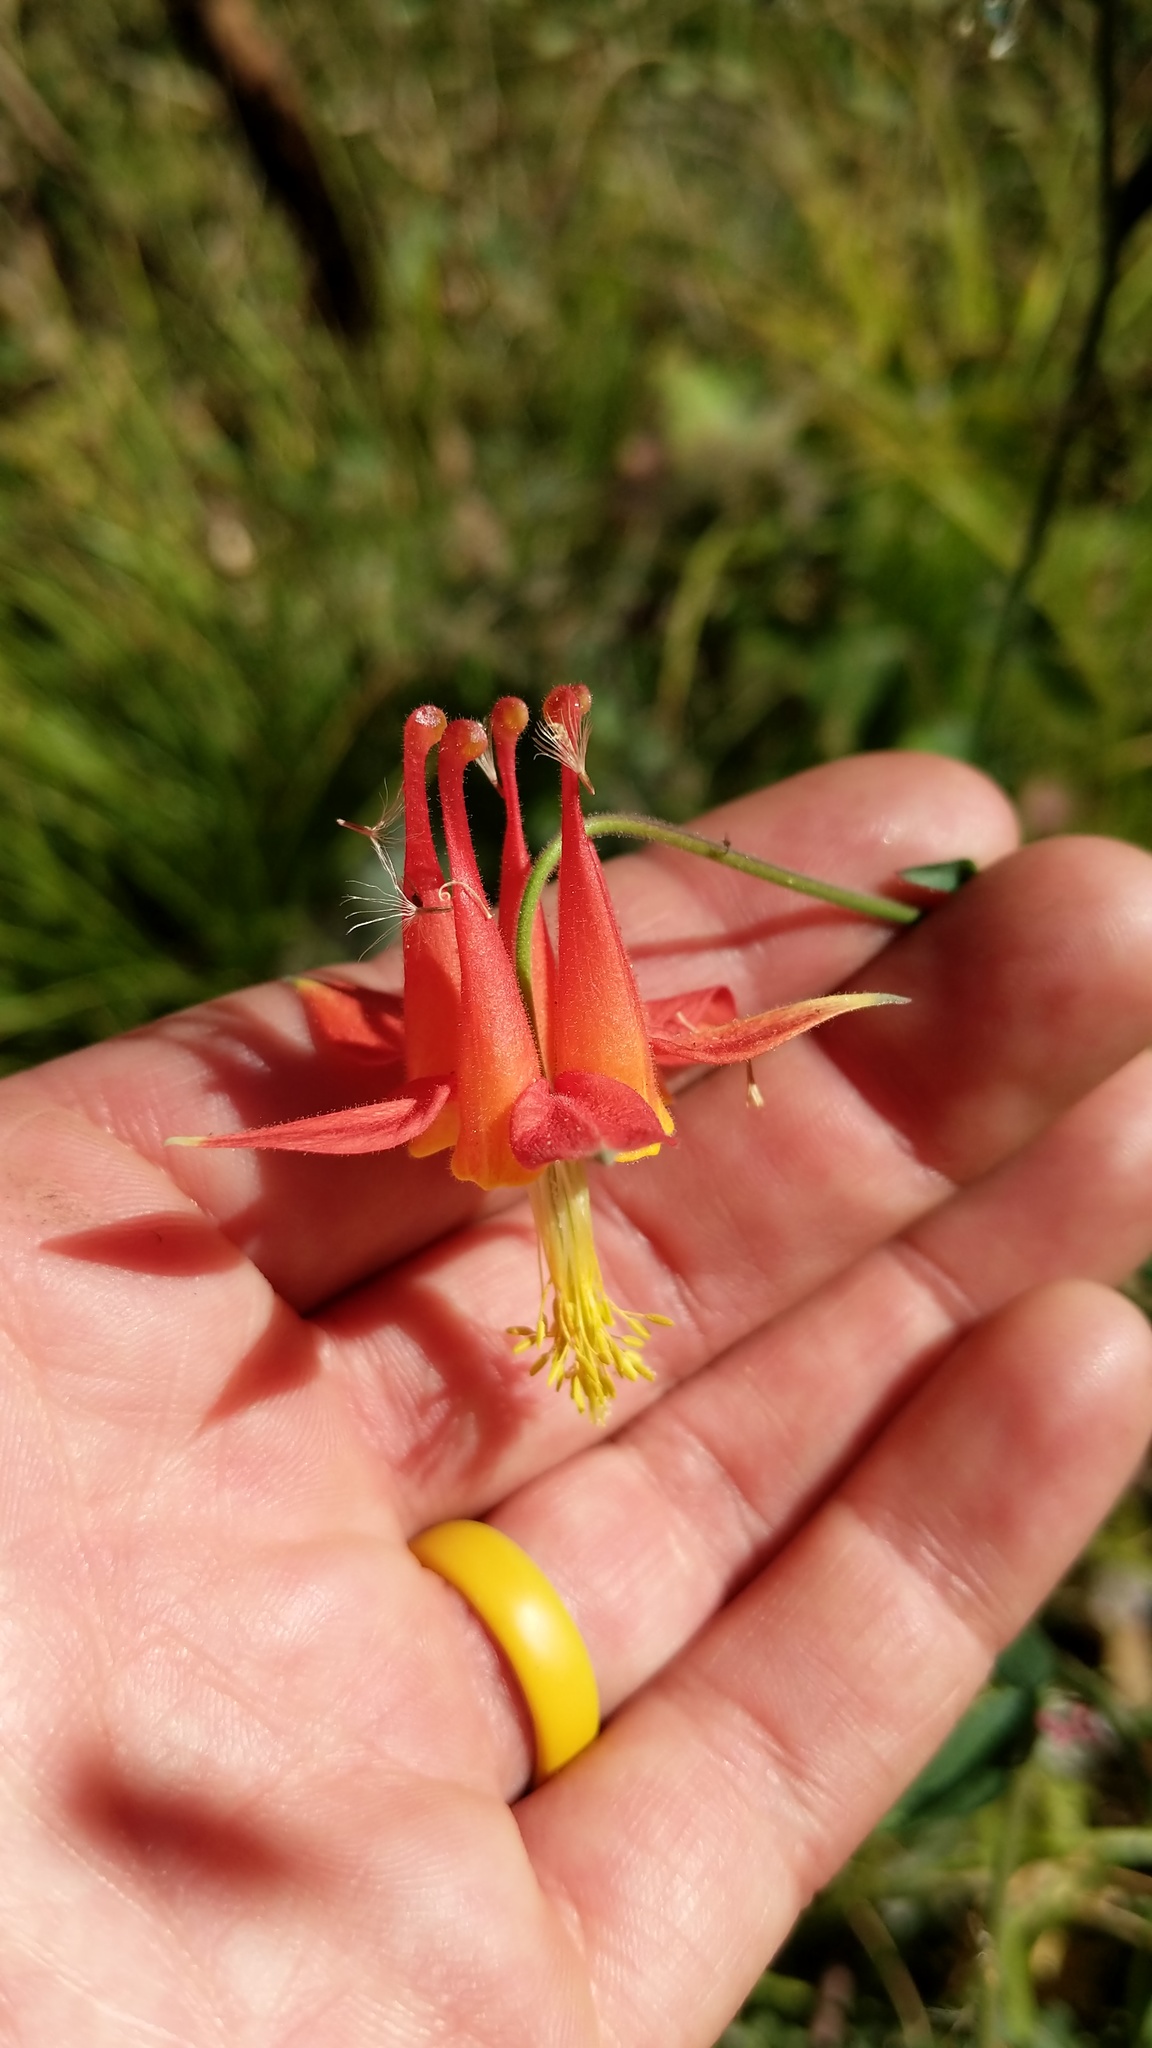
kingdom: Plantae
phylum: Tracheophyta
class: Magnoliopsida
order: Ranunculales
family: Ranunculaceae
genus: Aquilegia
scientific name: Aquilegia formosa
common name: Sitka columbine
